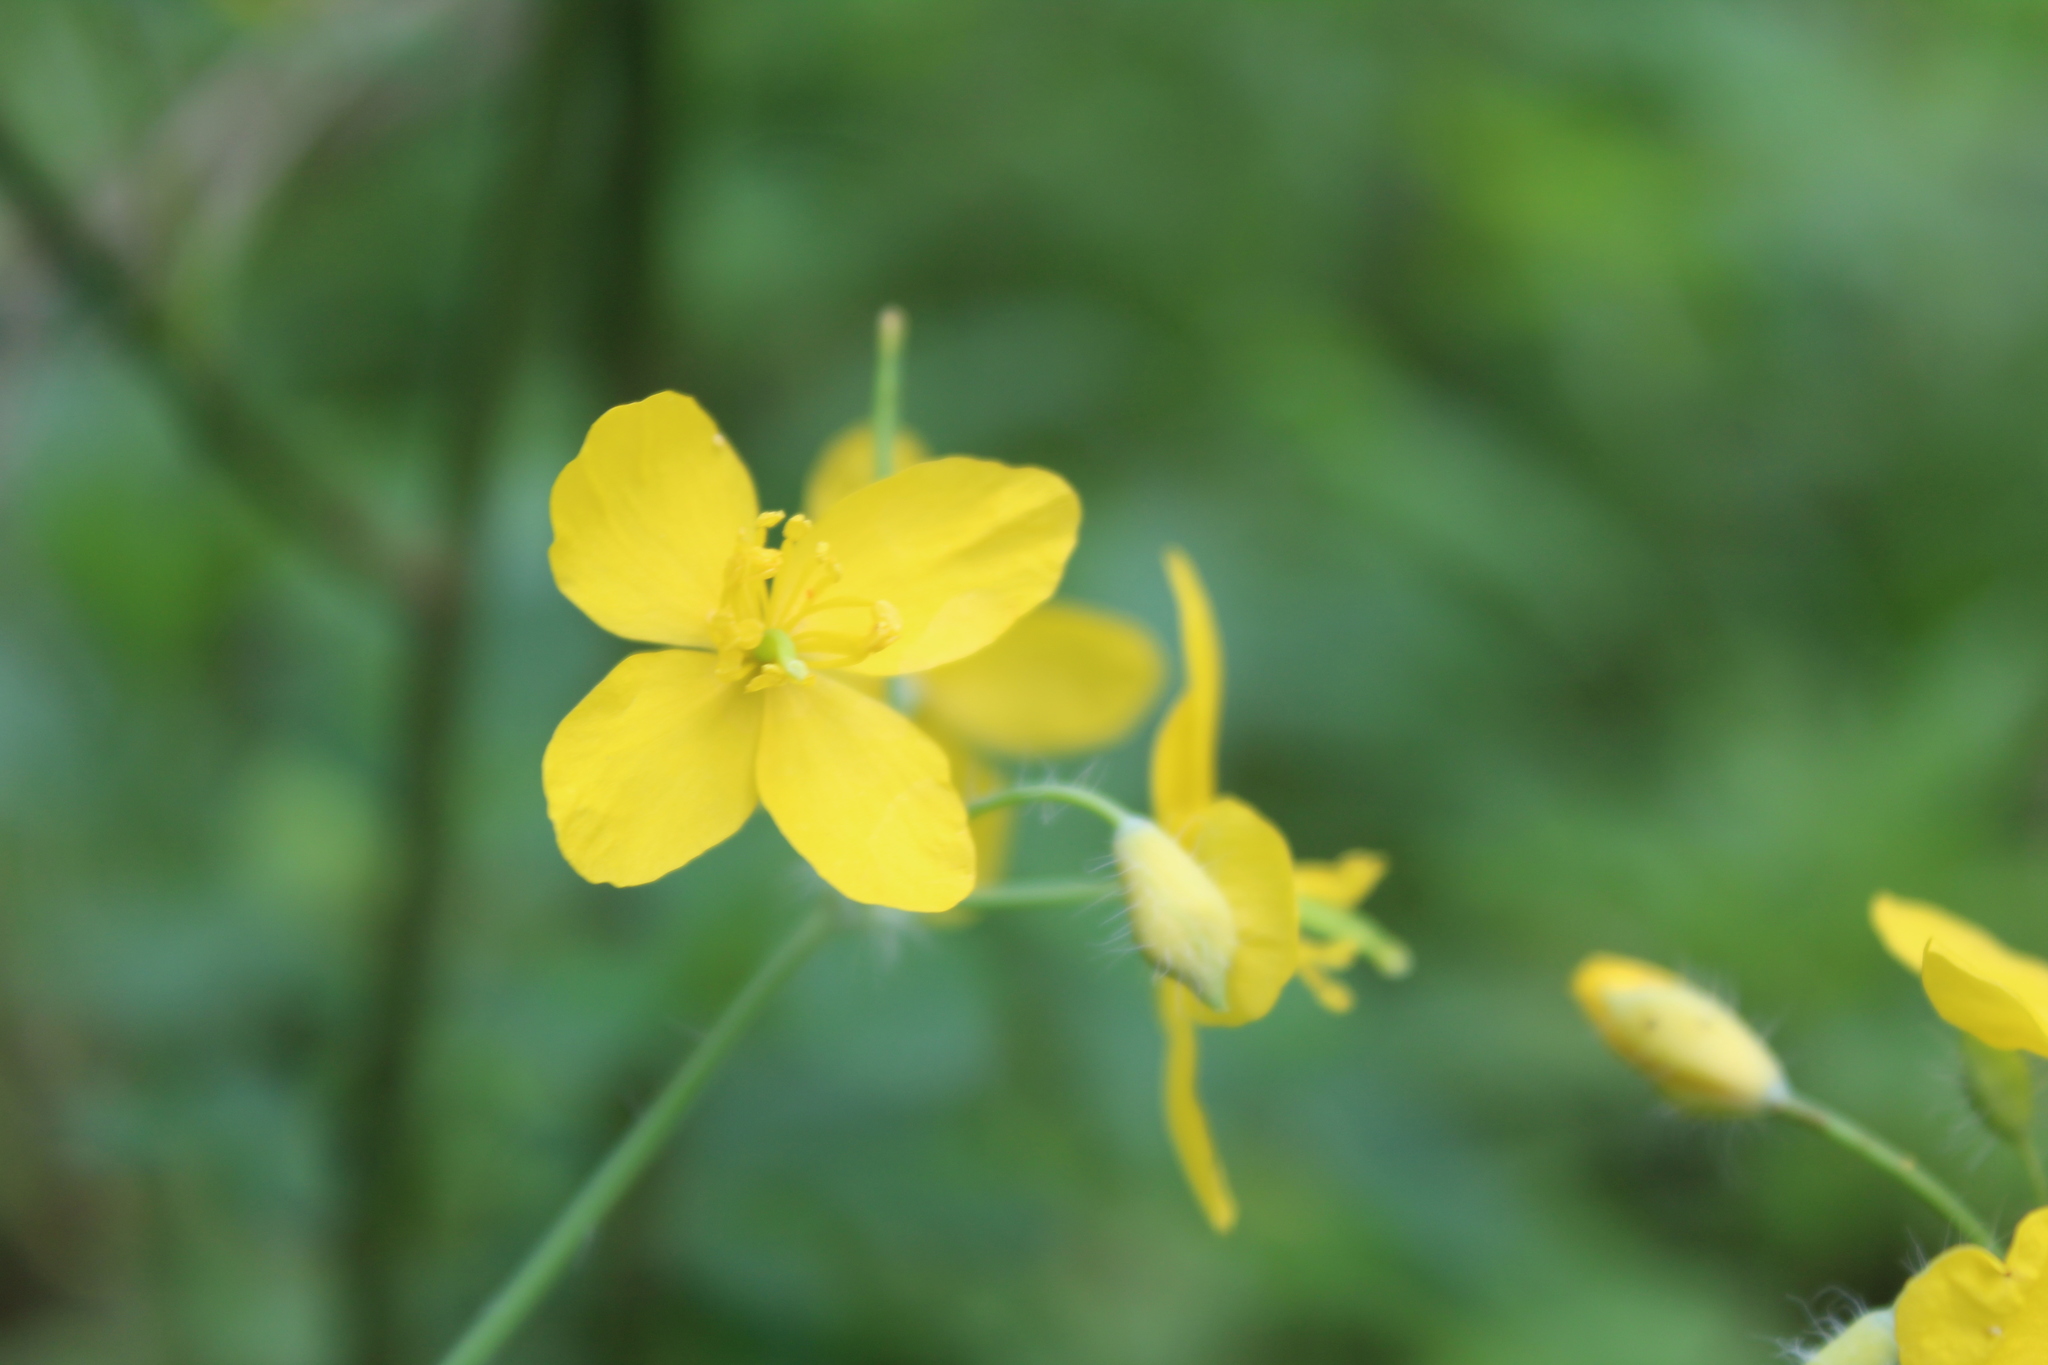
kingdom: Plantae
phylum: Tracheophyta
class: Magnoliopsida
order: Ranunculales
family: Papaveraceae
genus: Chelidonium
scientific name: Chelidonium majus
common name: Greater celandine
